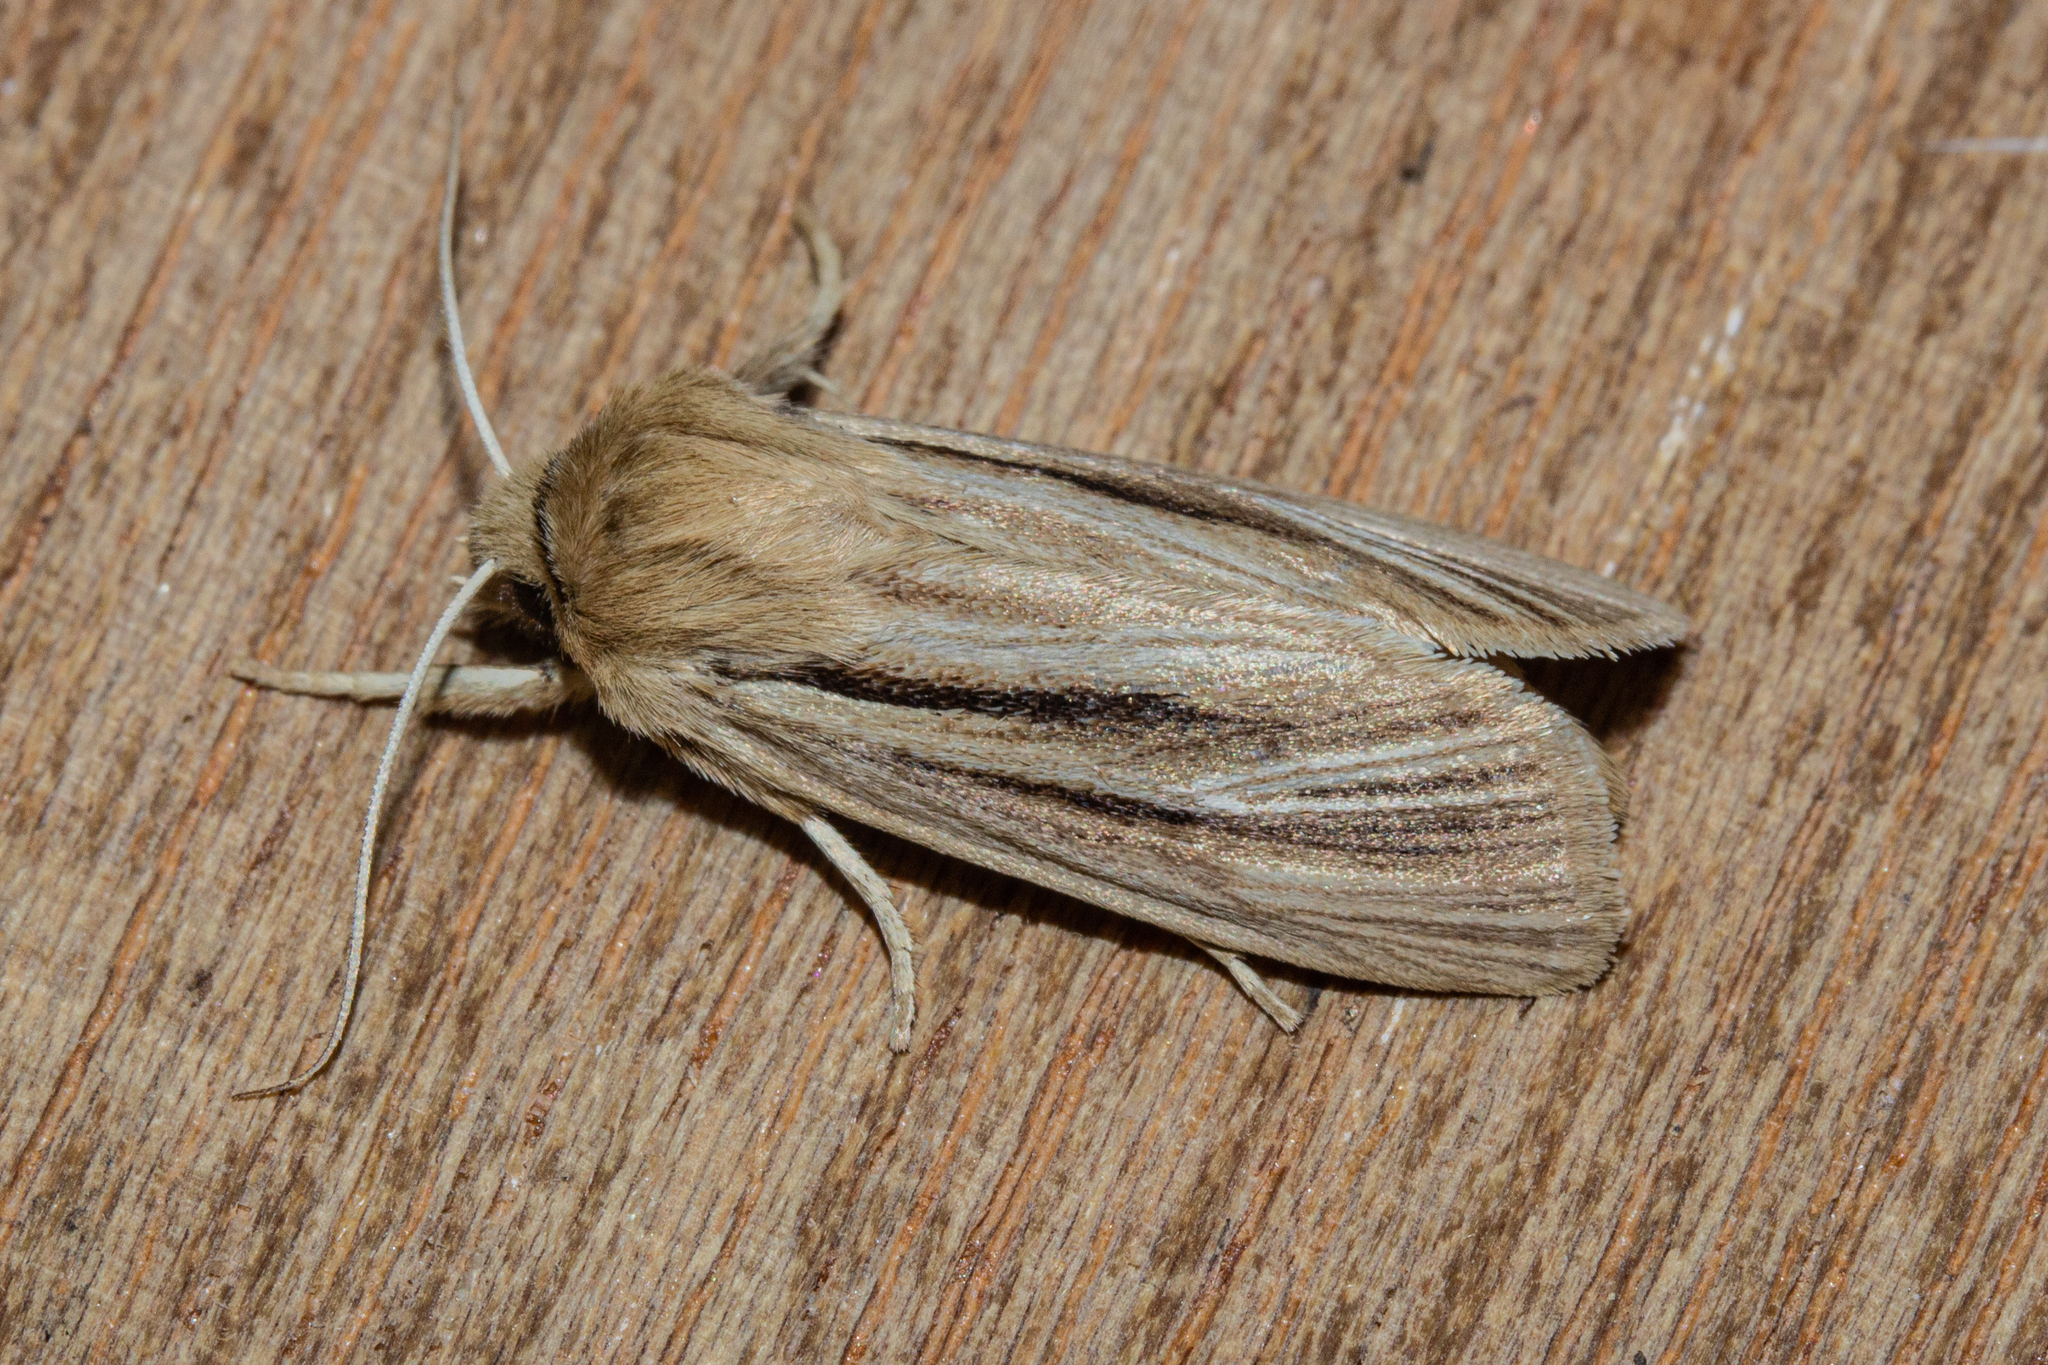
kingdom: Animalia
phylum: Arthropoda
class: Insecta
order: Lepidoptera
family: Noctuidae
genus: Ichneutica
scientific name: Ichneutica
